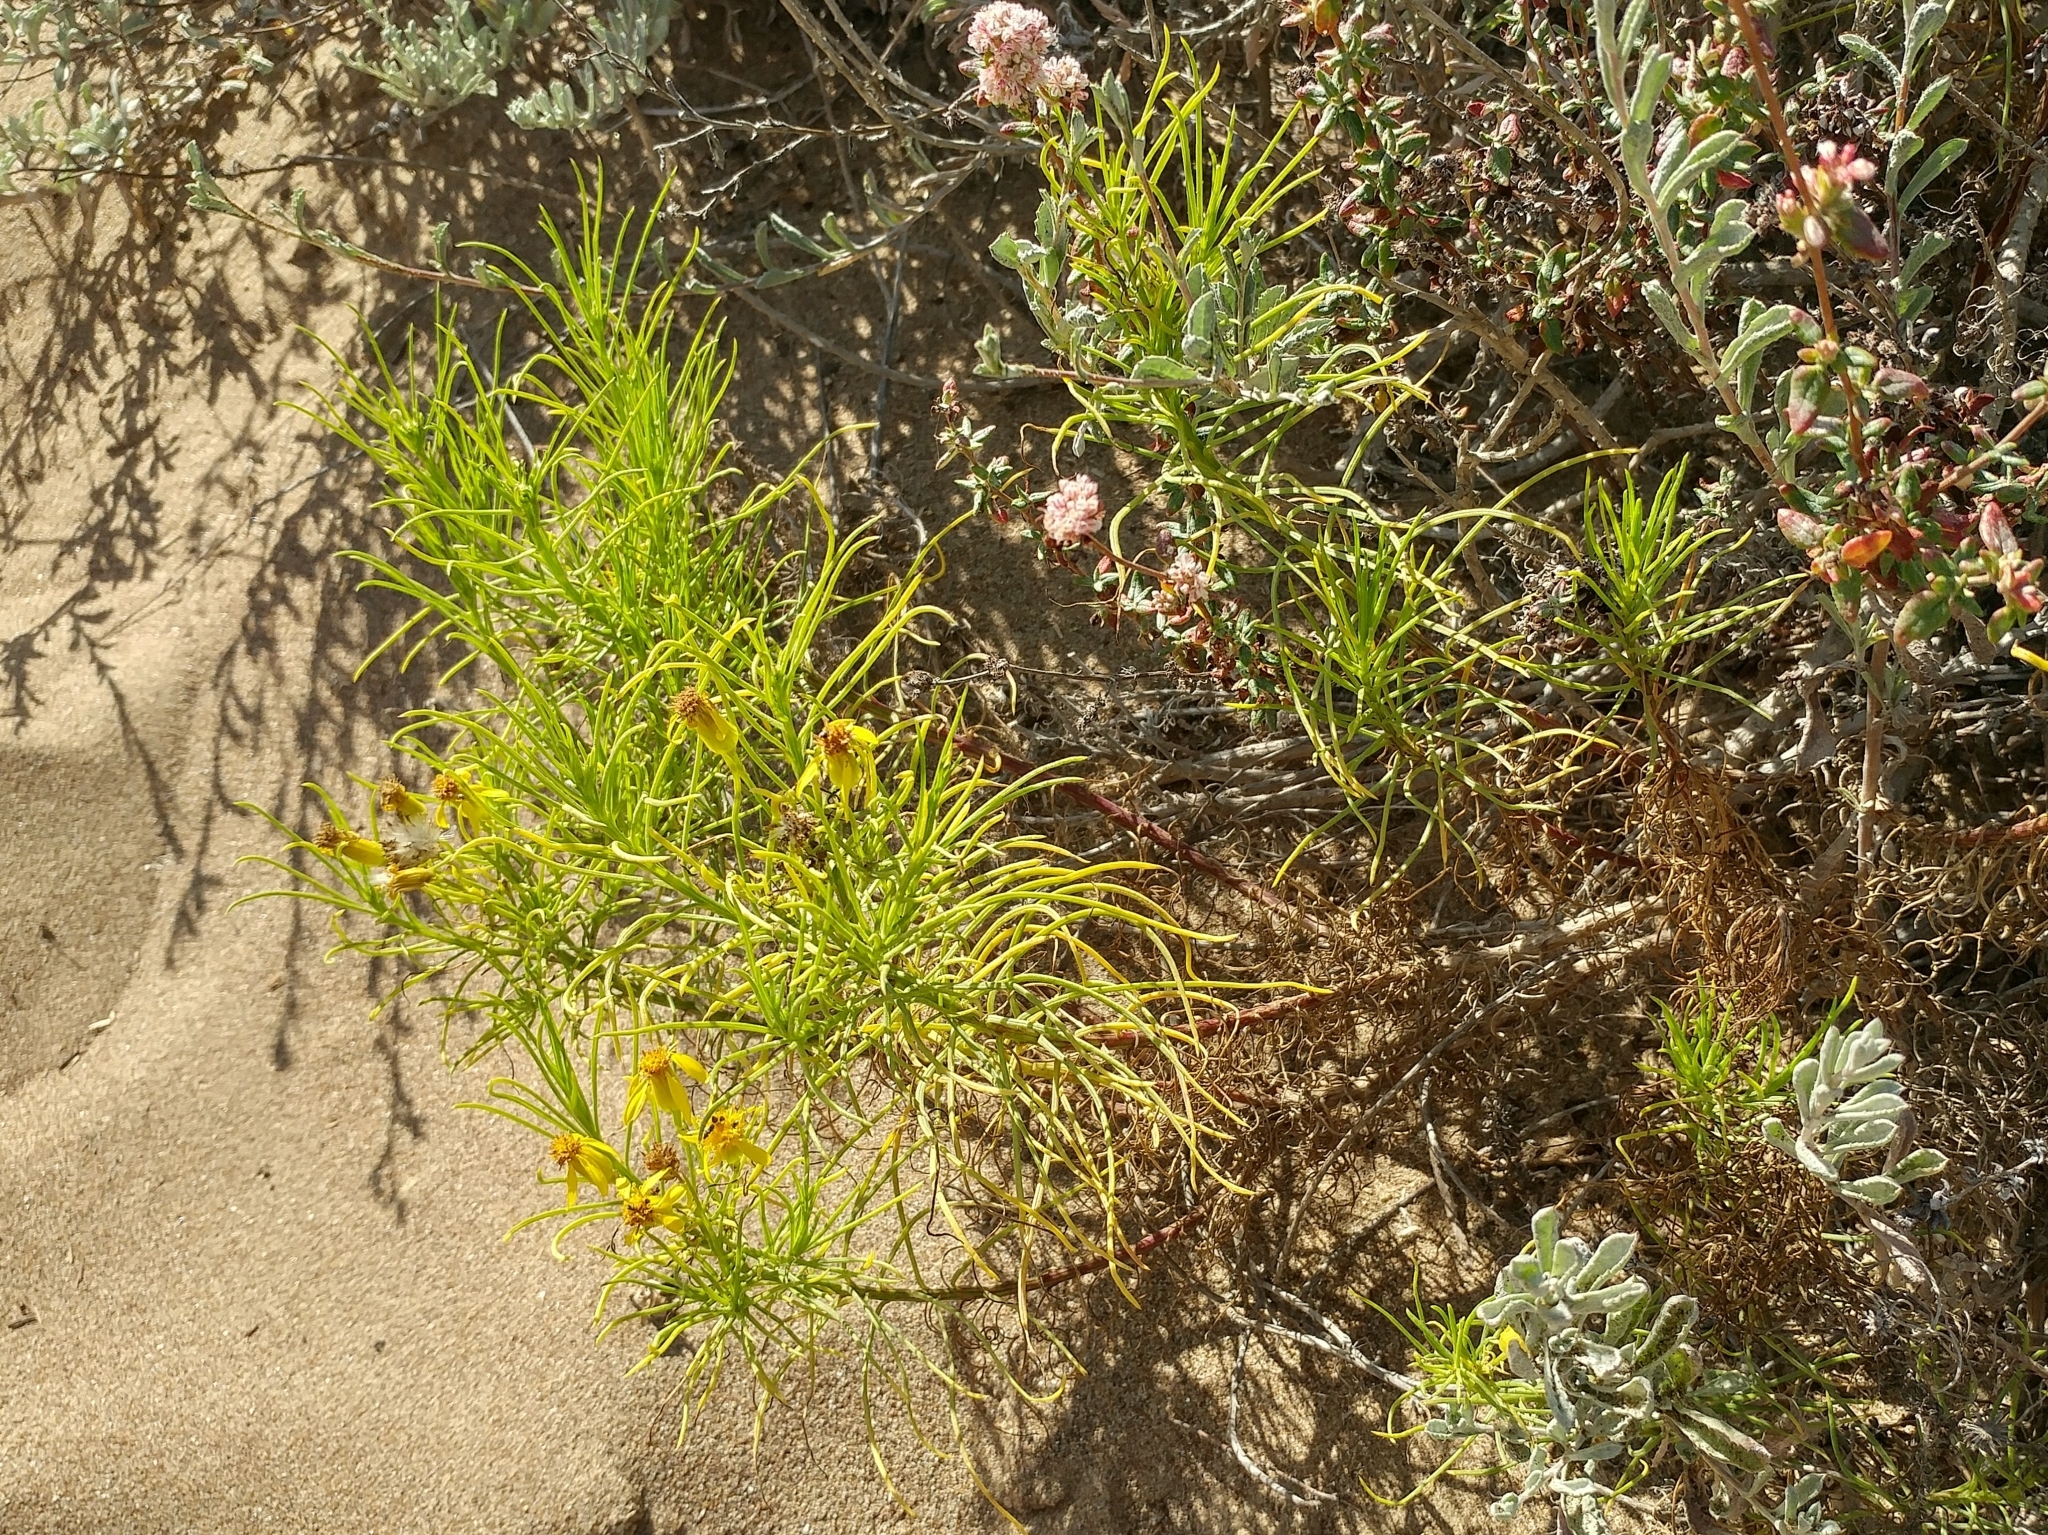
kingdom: Plantae
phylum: Tracheophyta
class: Magnoliopsida
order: Asterales
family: Asteraceae
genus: Senecio
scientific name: Senecio blochmaniae
